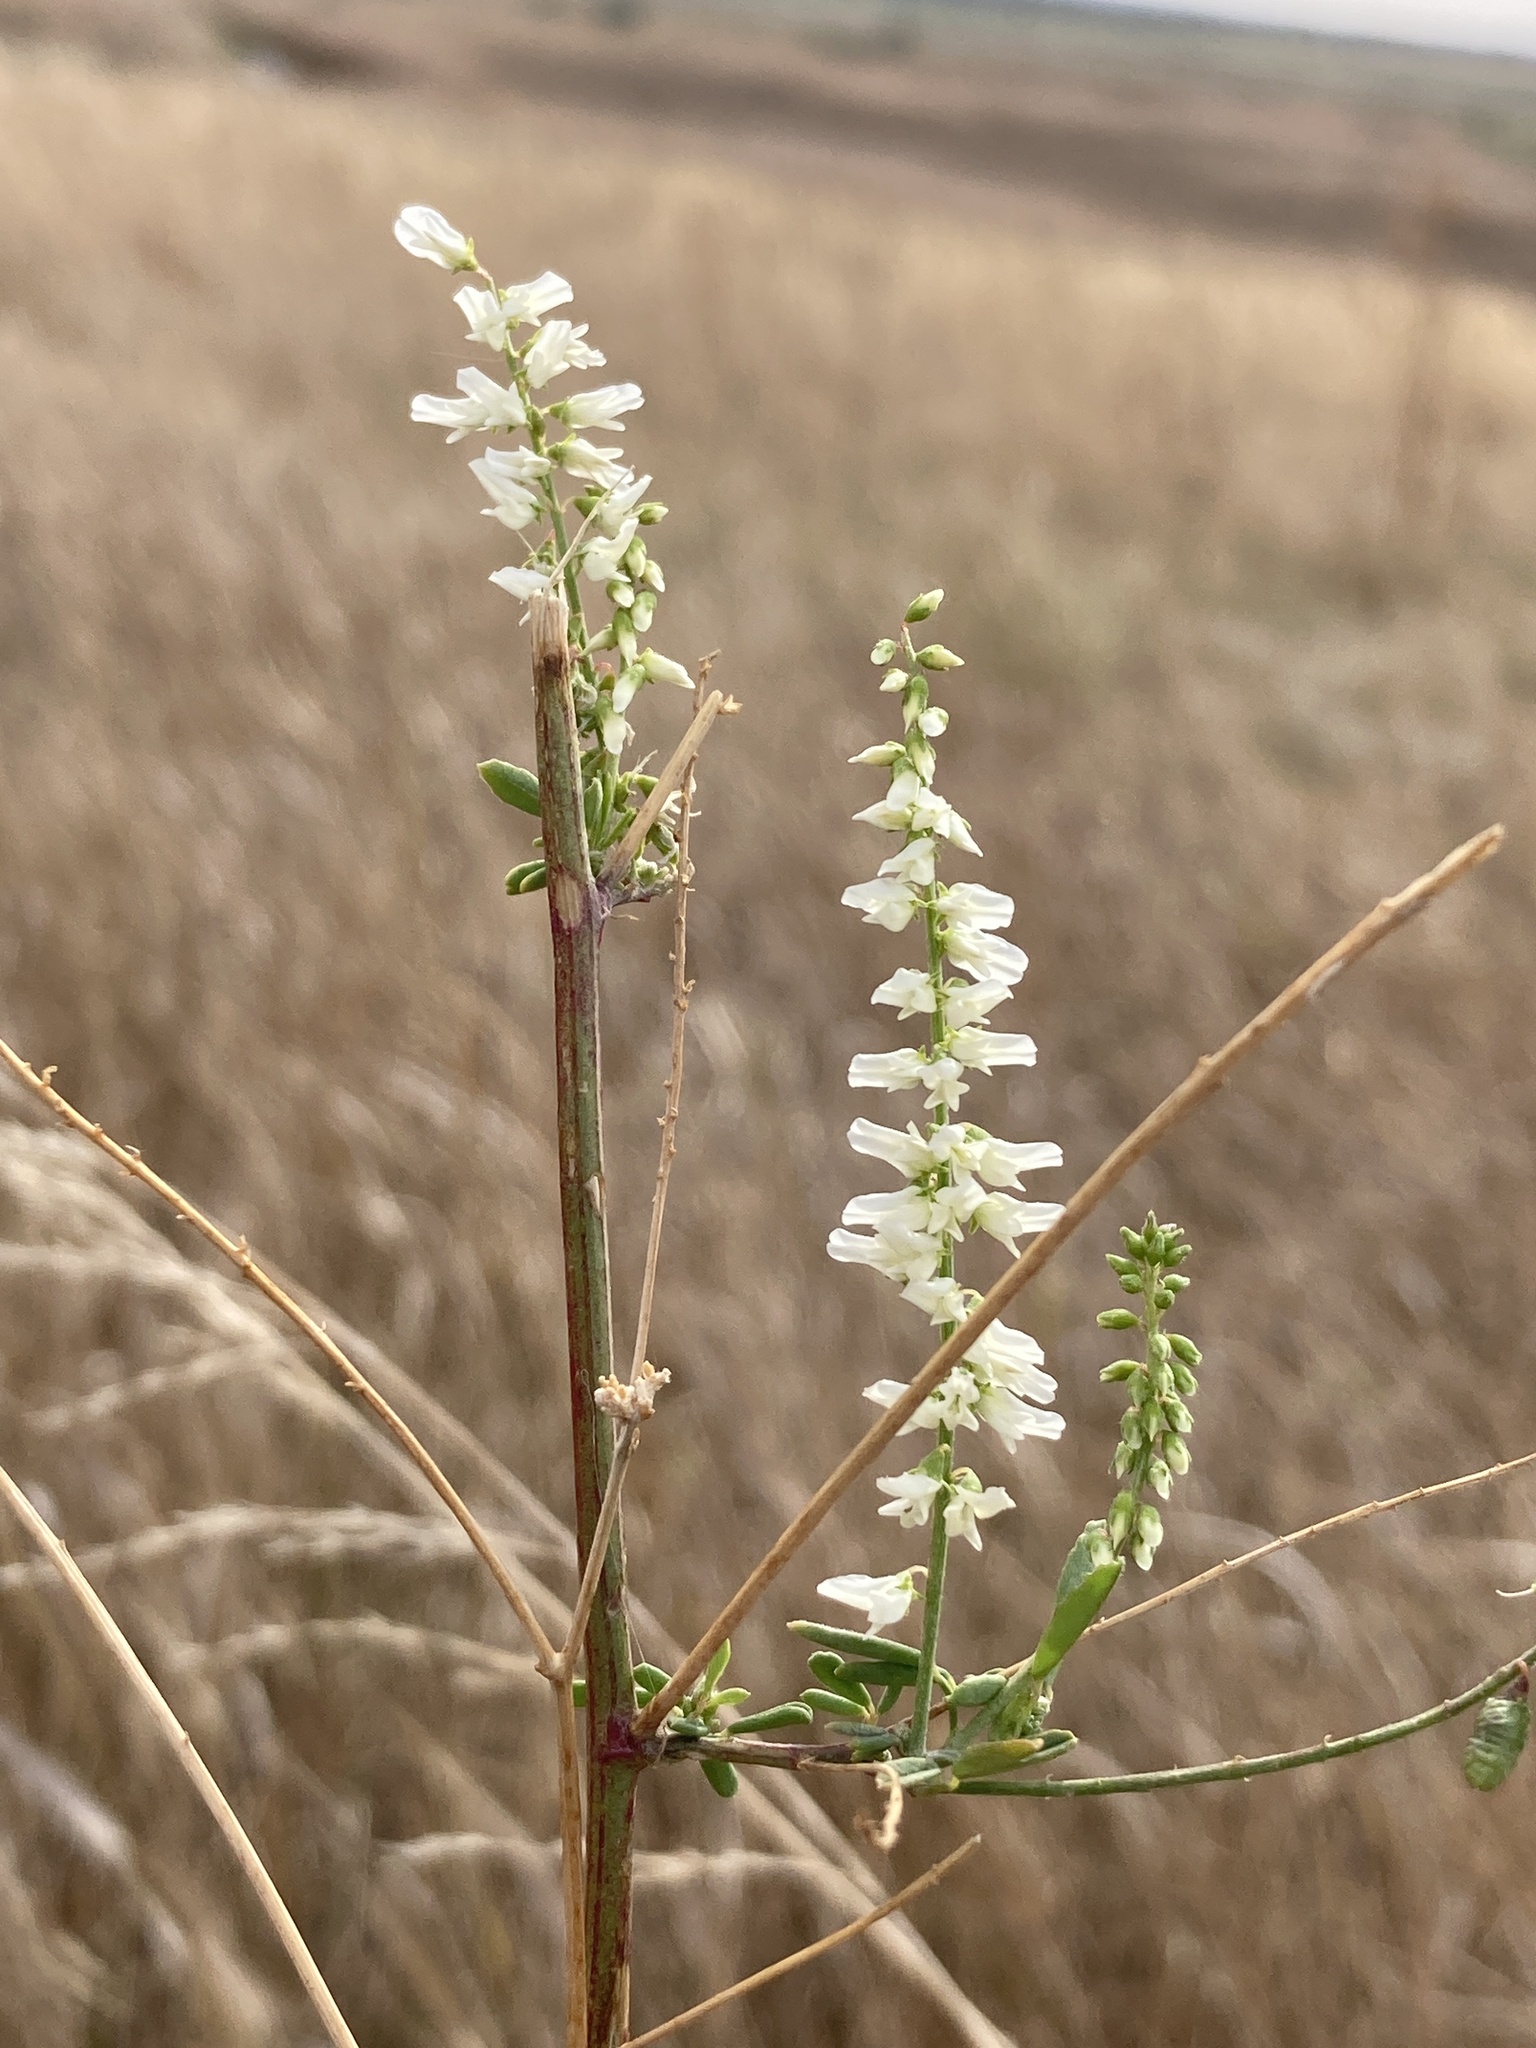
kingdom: Plantae
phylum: Tracheophyta
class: Magnoliopsida
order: Fabales
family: Fabaceae
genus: Melilotus
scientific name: Melilotus albus
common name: White melilot
